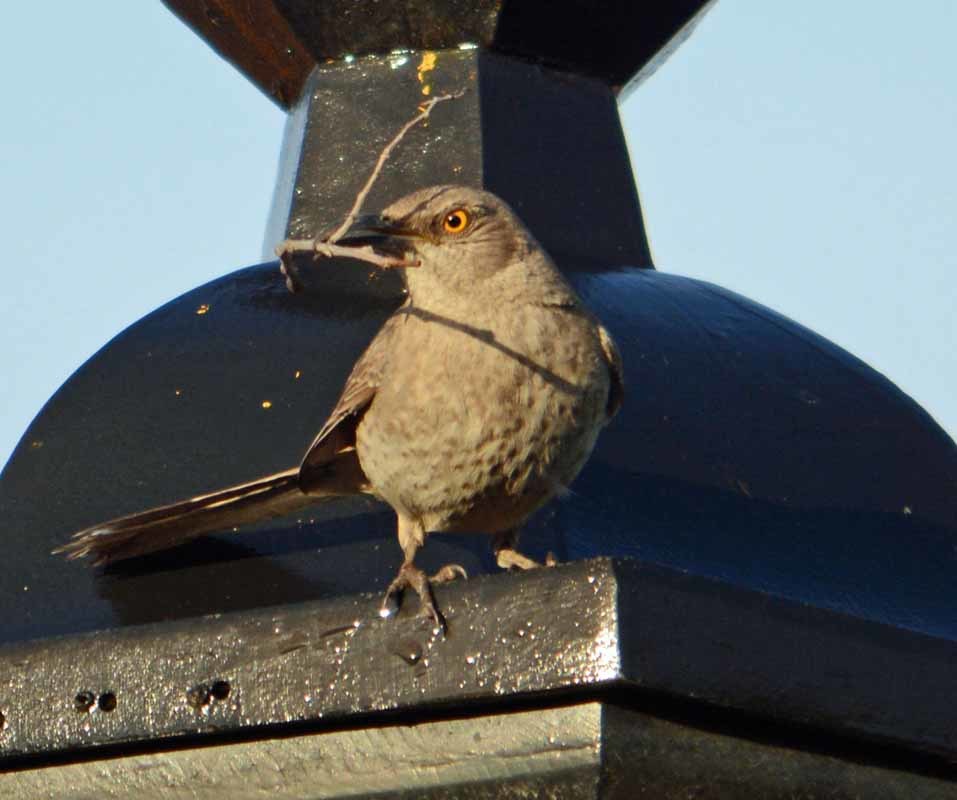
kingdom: Animalia
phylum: Chordata
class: Aves
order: Passeriformes
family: Mimidae
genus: Toxostoma
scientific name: Toxostoma curvirostre
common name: Curve-billed thrasher
